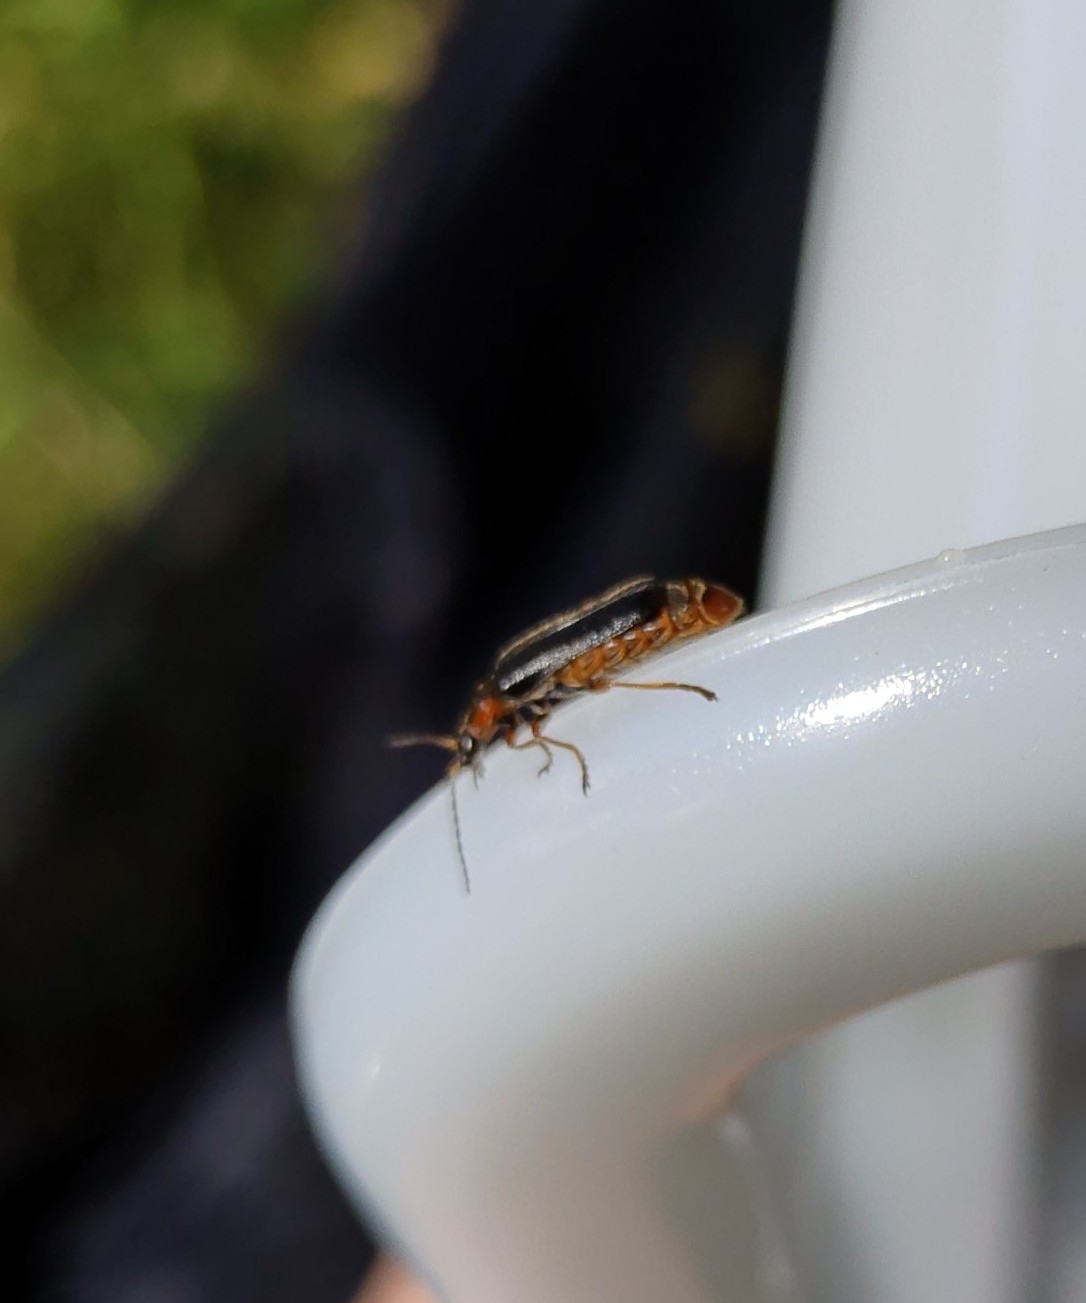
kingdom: Animalia
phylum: Arthropoda
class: Insecta
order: Coleoptera
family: Cantharidae
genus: Cantharis
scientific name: Cantharis flavilabris
